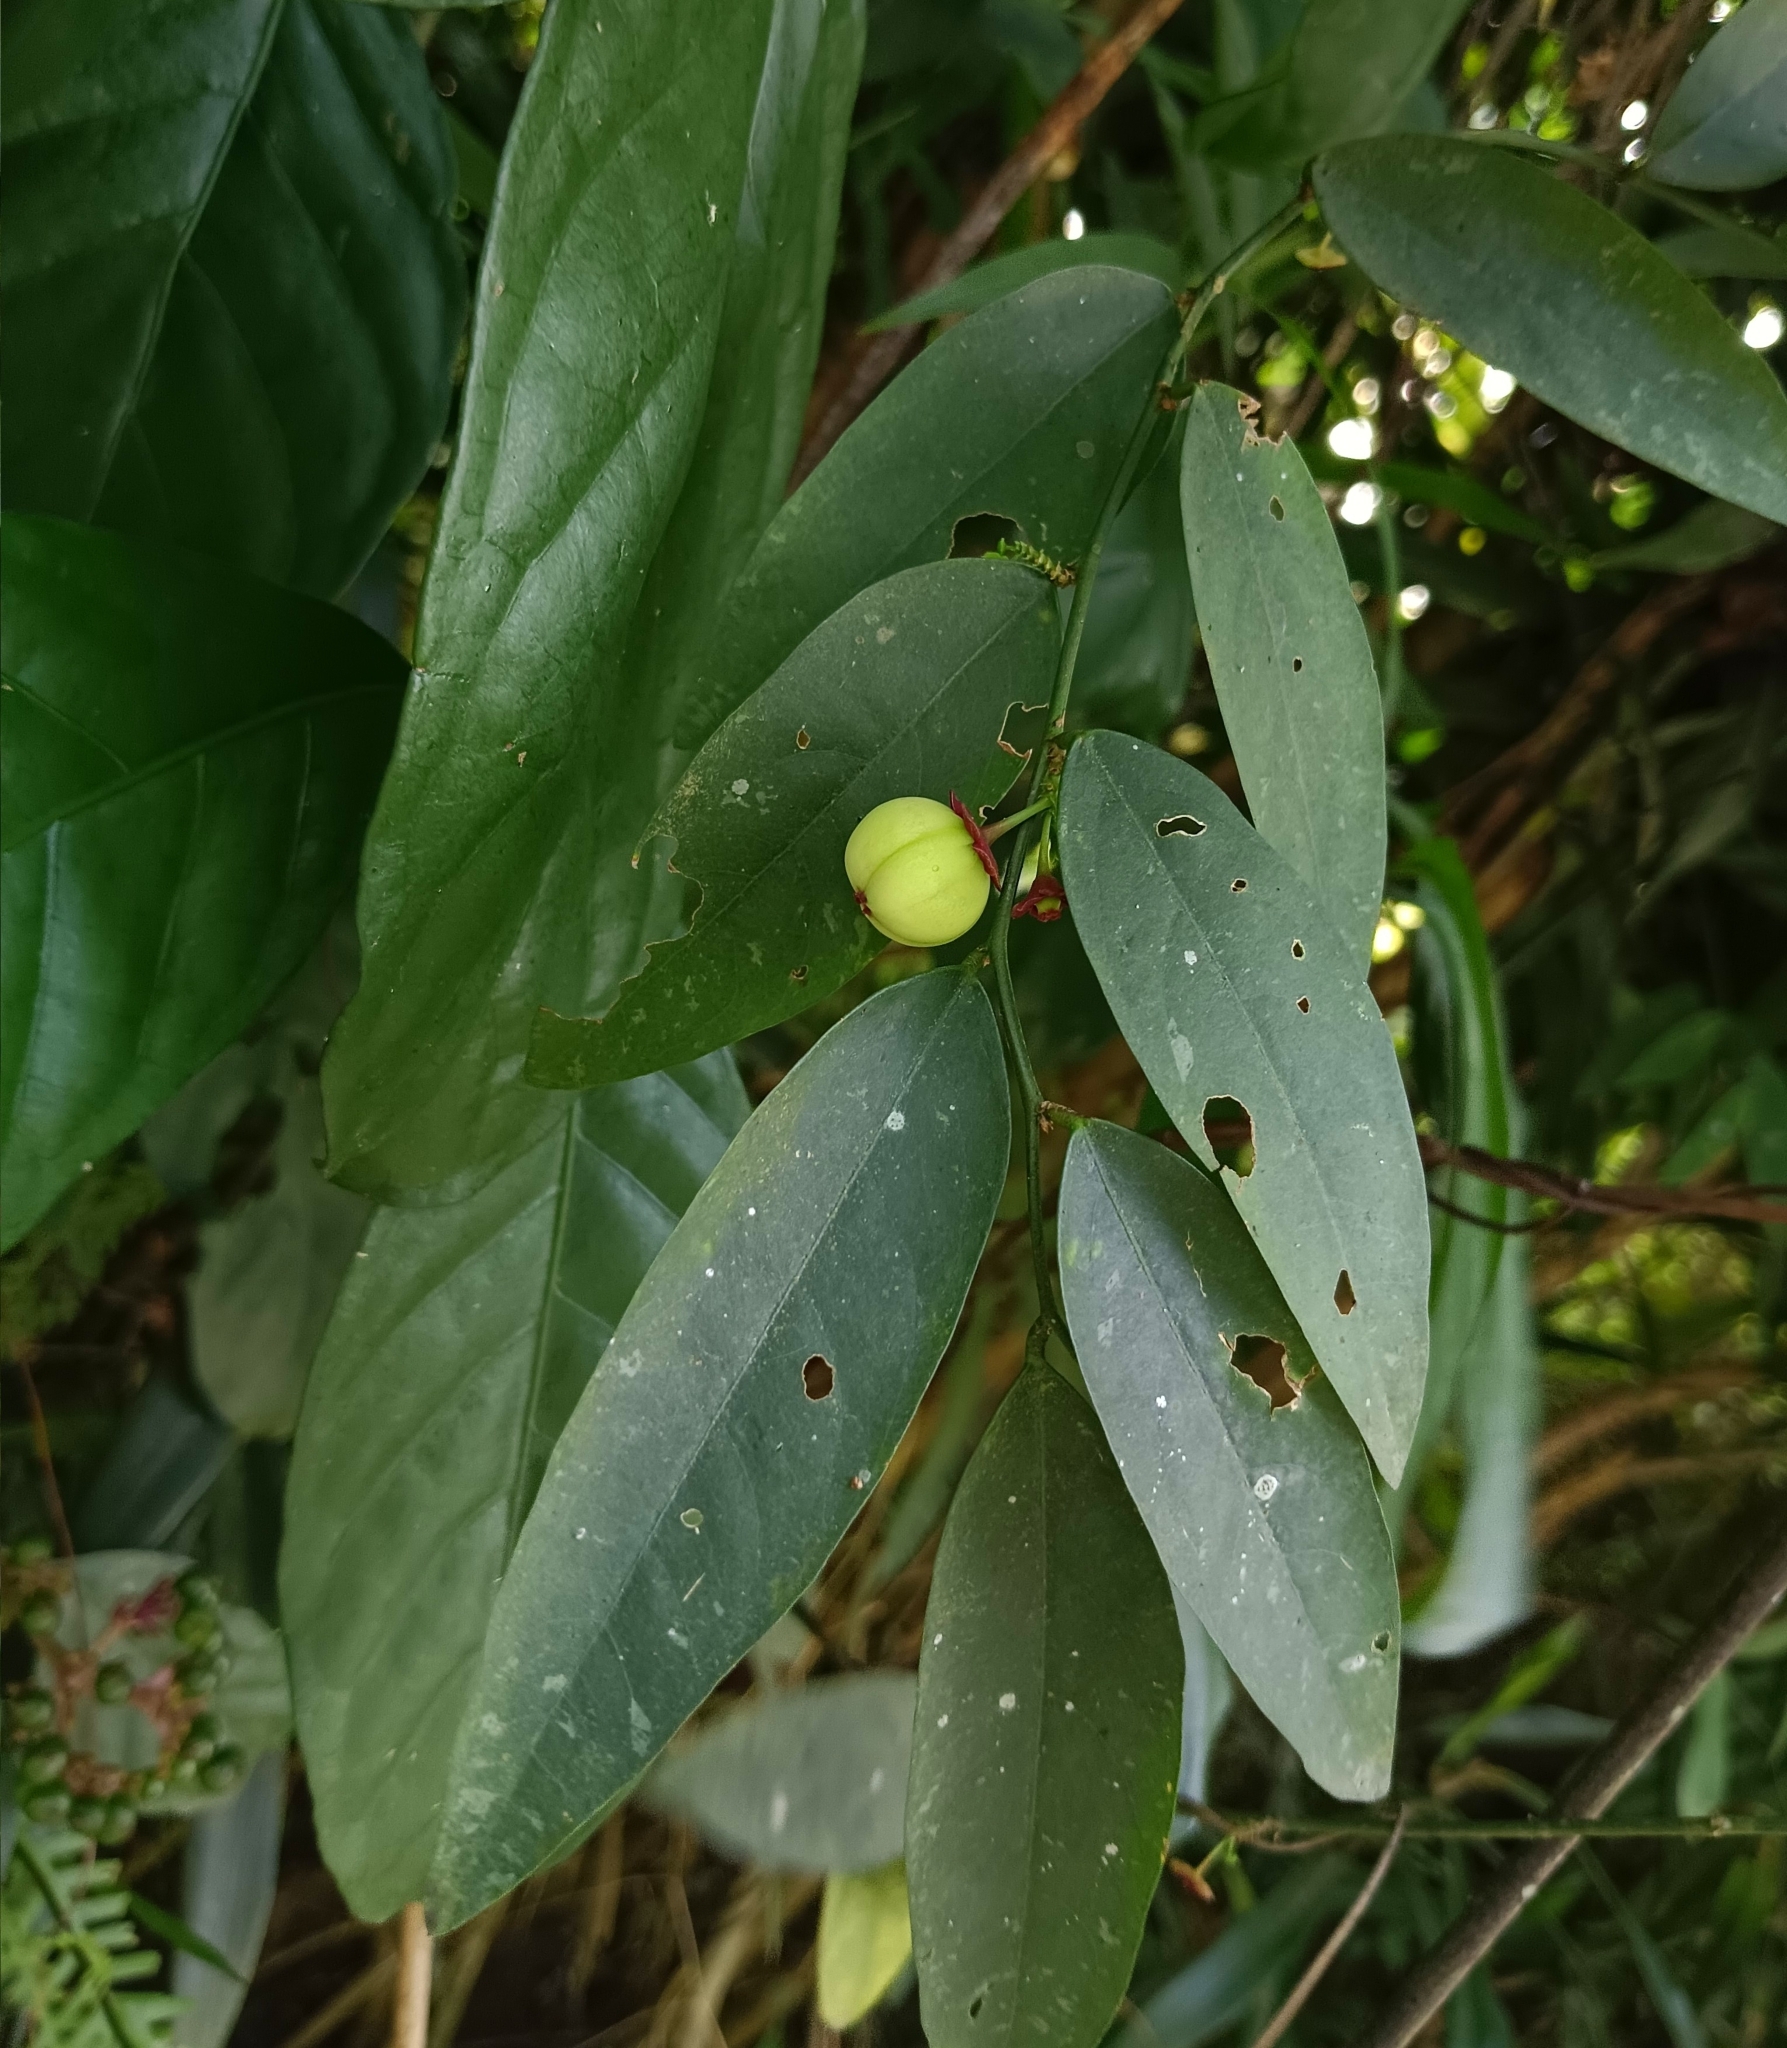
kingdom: Plantae
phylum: Tracheophyta
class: Magnoliopsida
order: Malpighiales
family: Phyllanthaceae
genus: Breynia
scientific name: Breynia androgyna
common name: Star gooseberry
